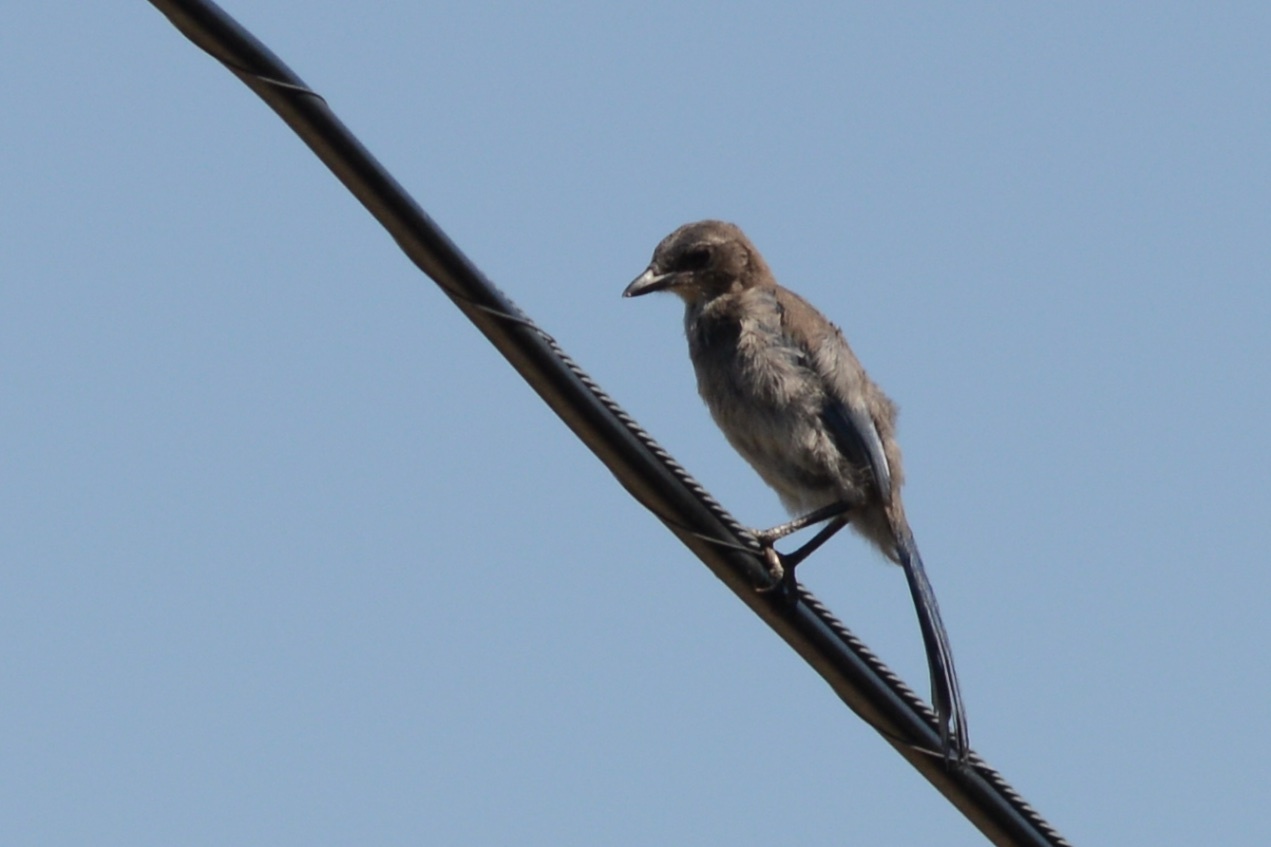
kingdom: Animalia
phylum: Chordata
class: Aves
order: Passeriformes
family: Corvidae
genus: Aphelocoma
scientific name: Aphelocoma californica
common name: California scrub-jay
